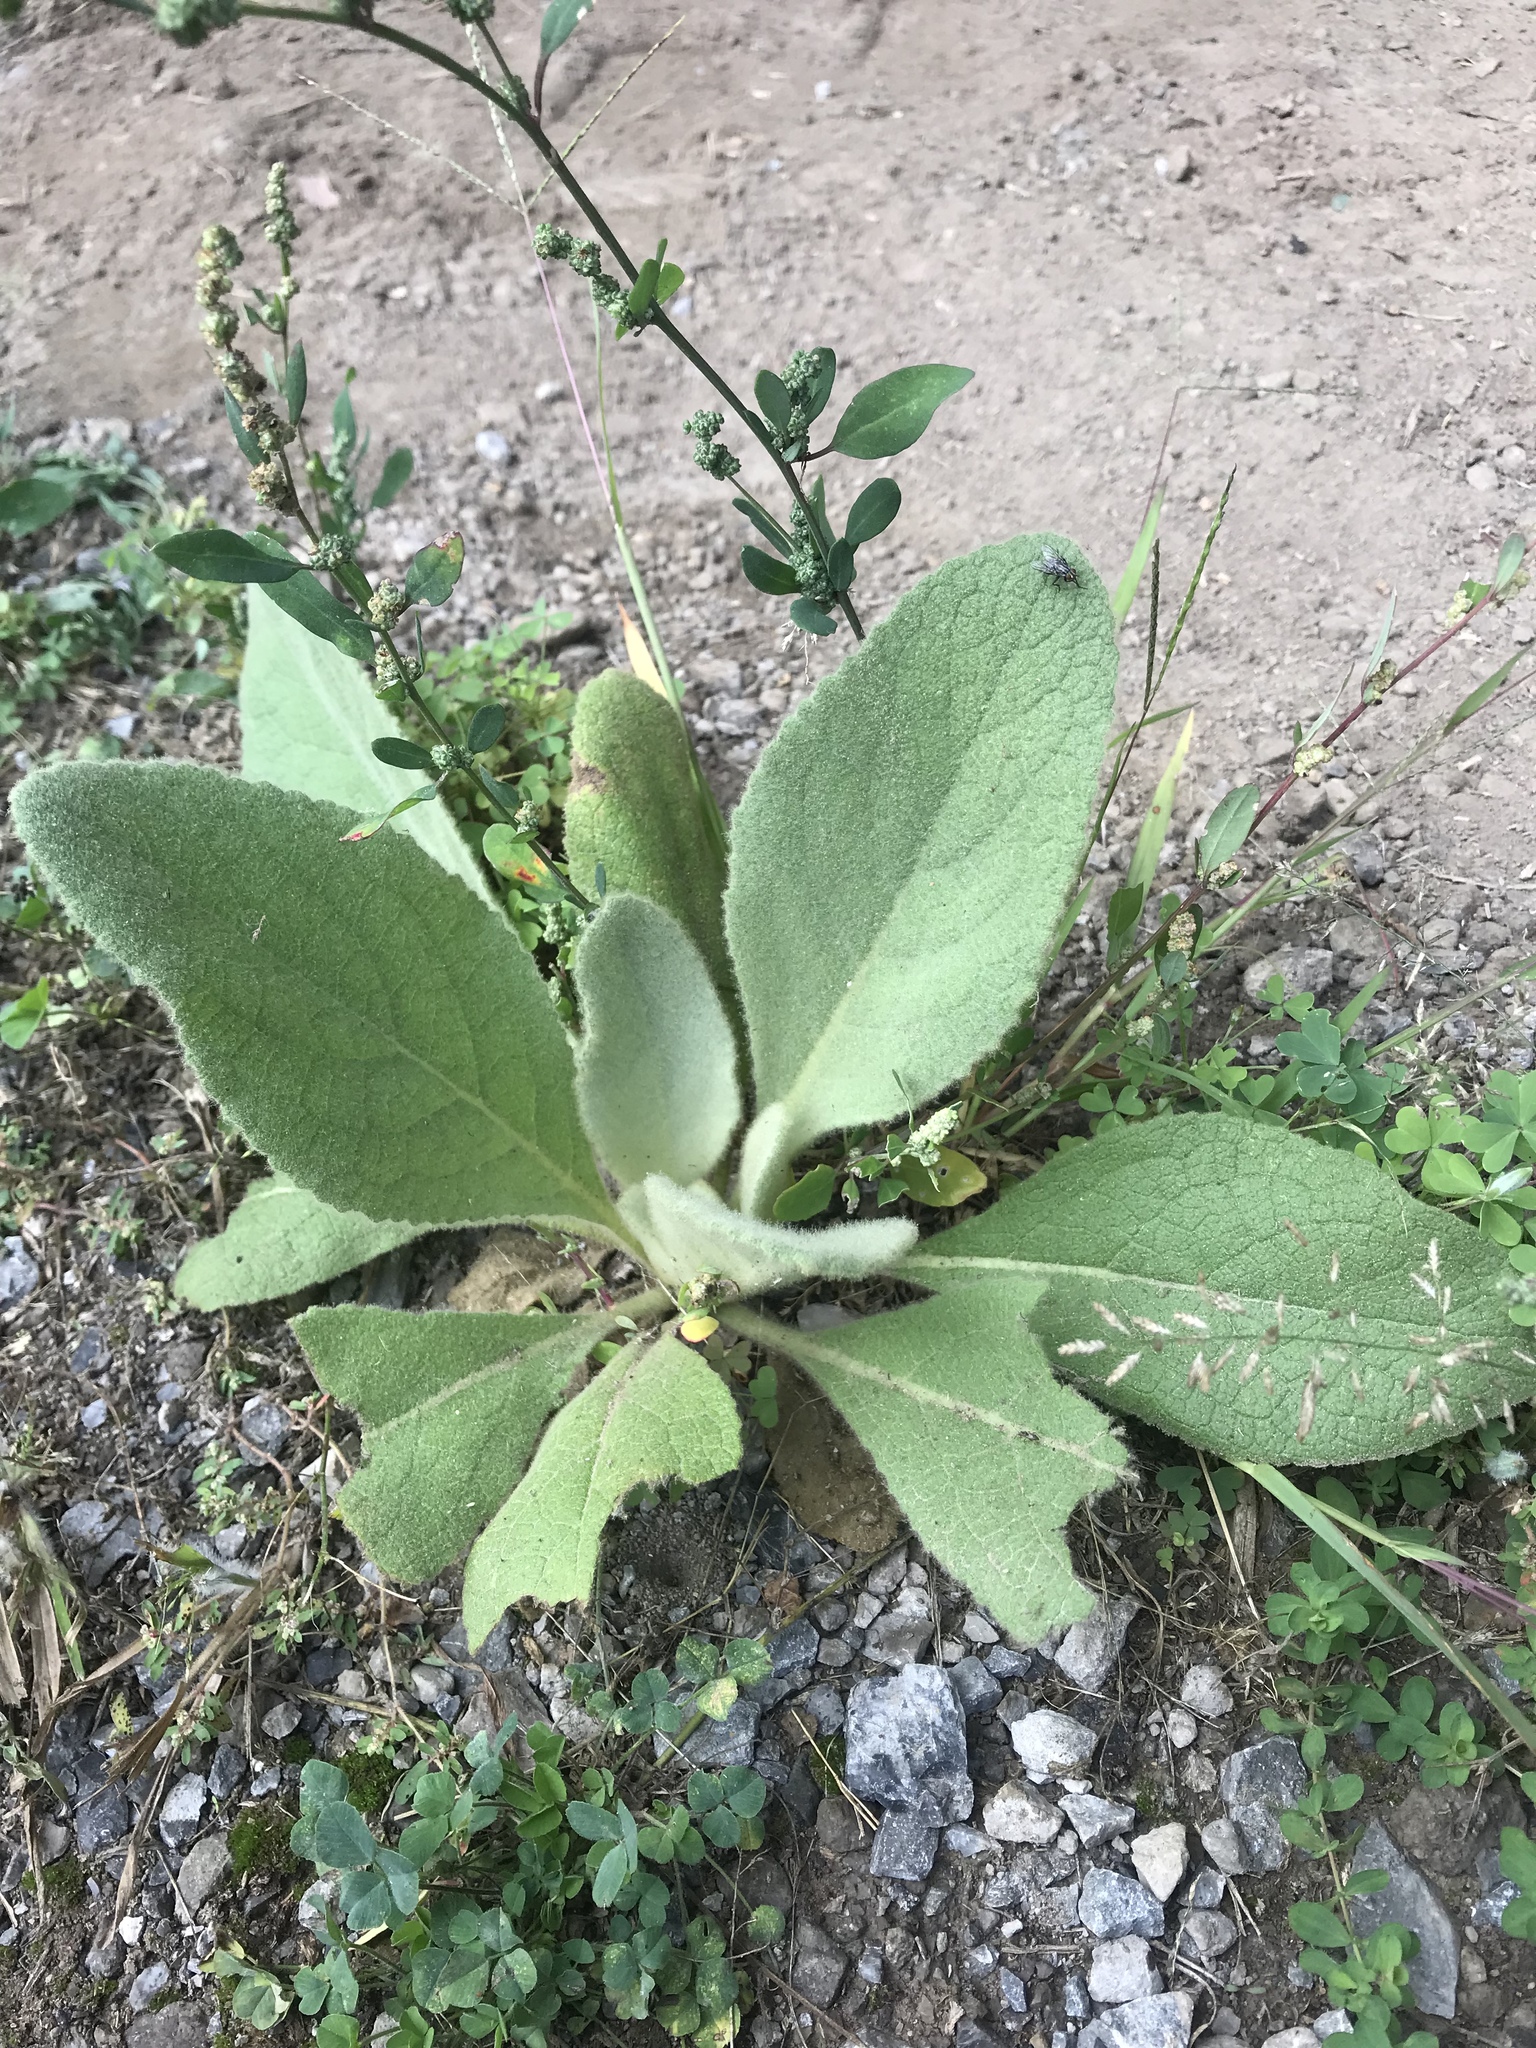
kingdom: Plantae
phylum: Tracheophyta
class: Magnoliopsida
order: Lamiales
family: Scrophulariaceae
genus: Verbascum
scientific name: Verbascum thapsus
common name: Common mullein
